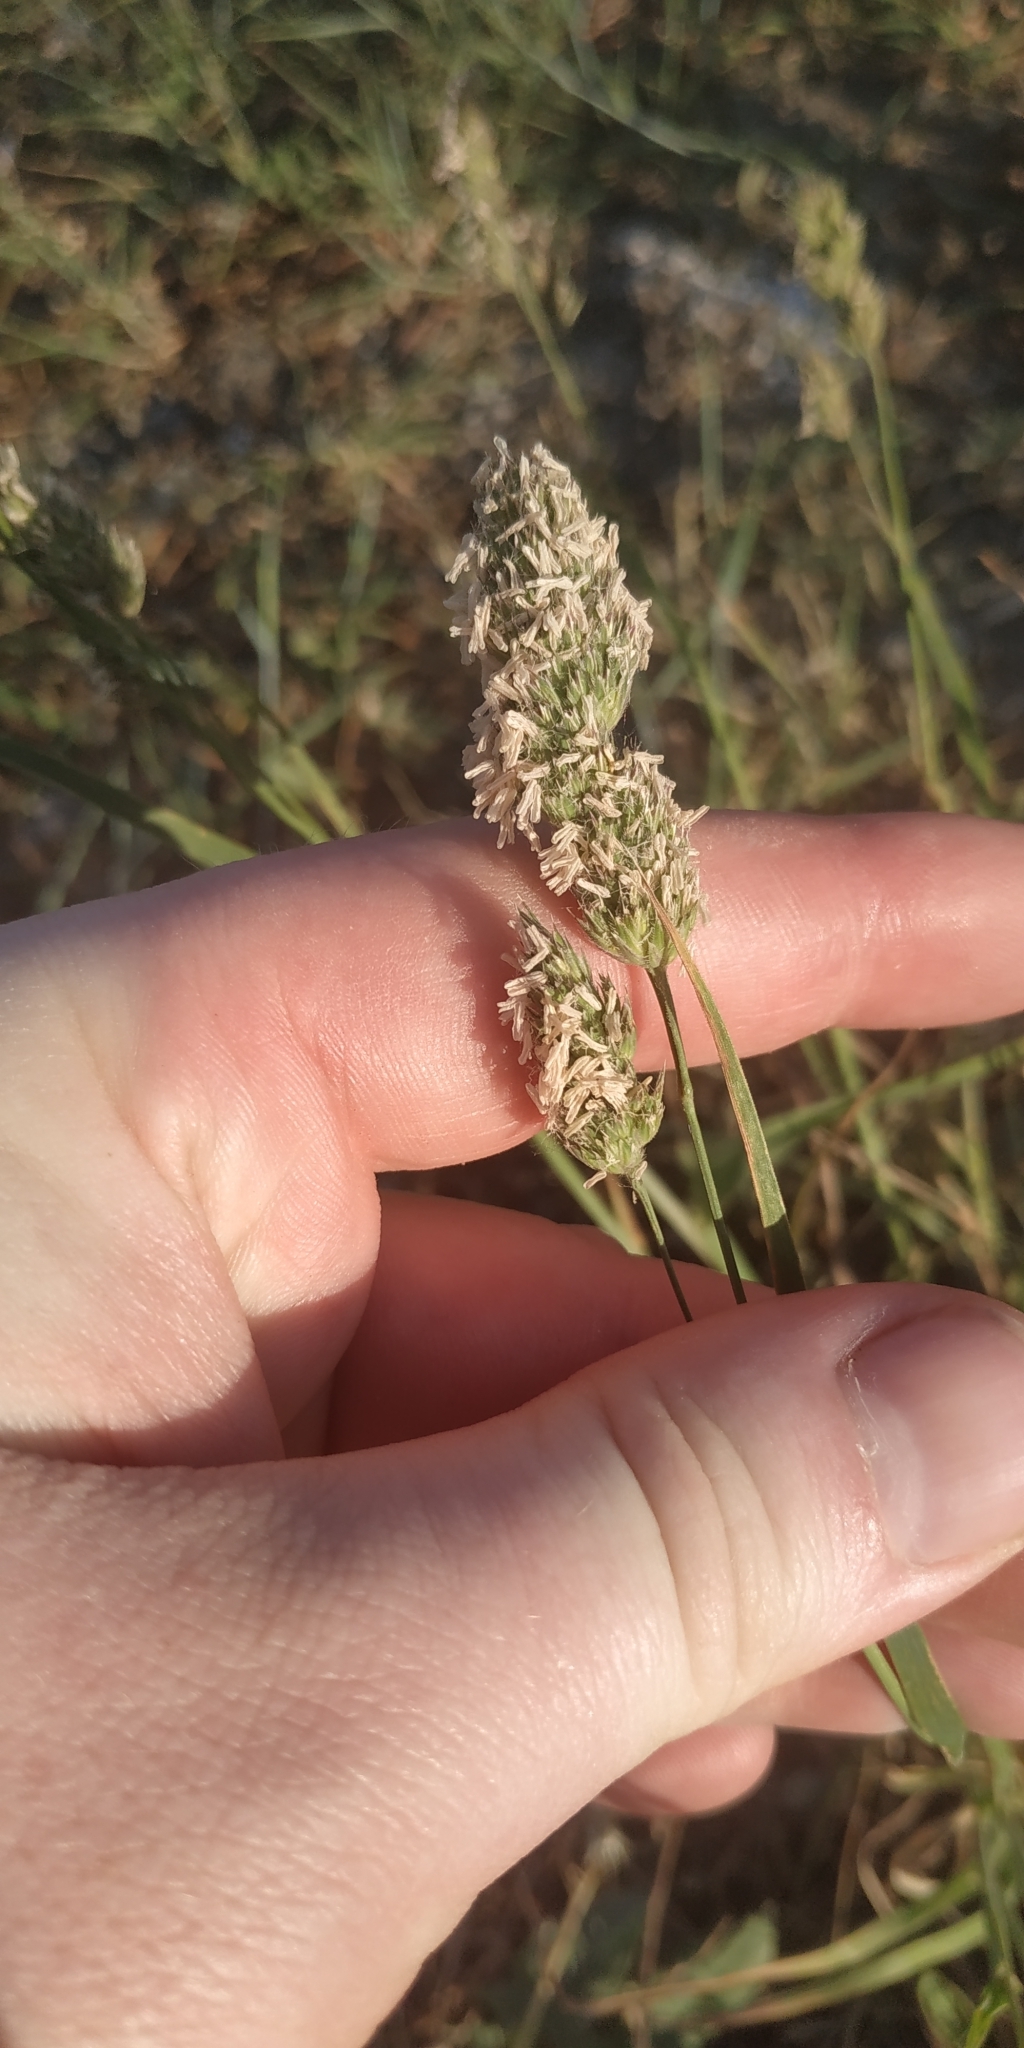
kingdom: Plantae
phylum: Tracheophyta
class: Liliopsida
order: Poales
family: Poaceae
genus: Dactylis
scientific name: Dactylis glomerata
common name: Orchardgrass
